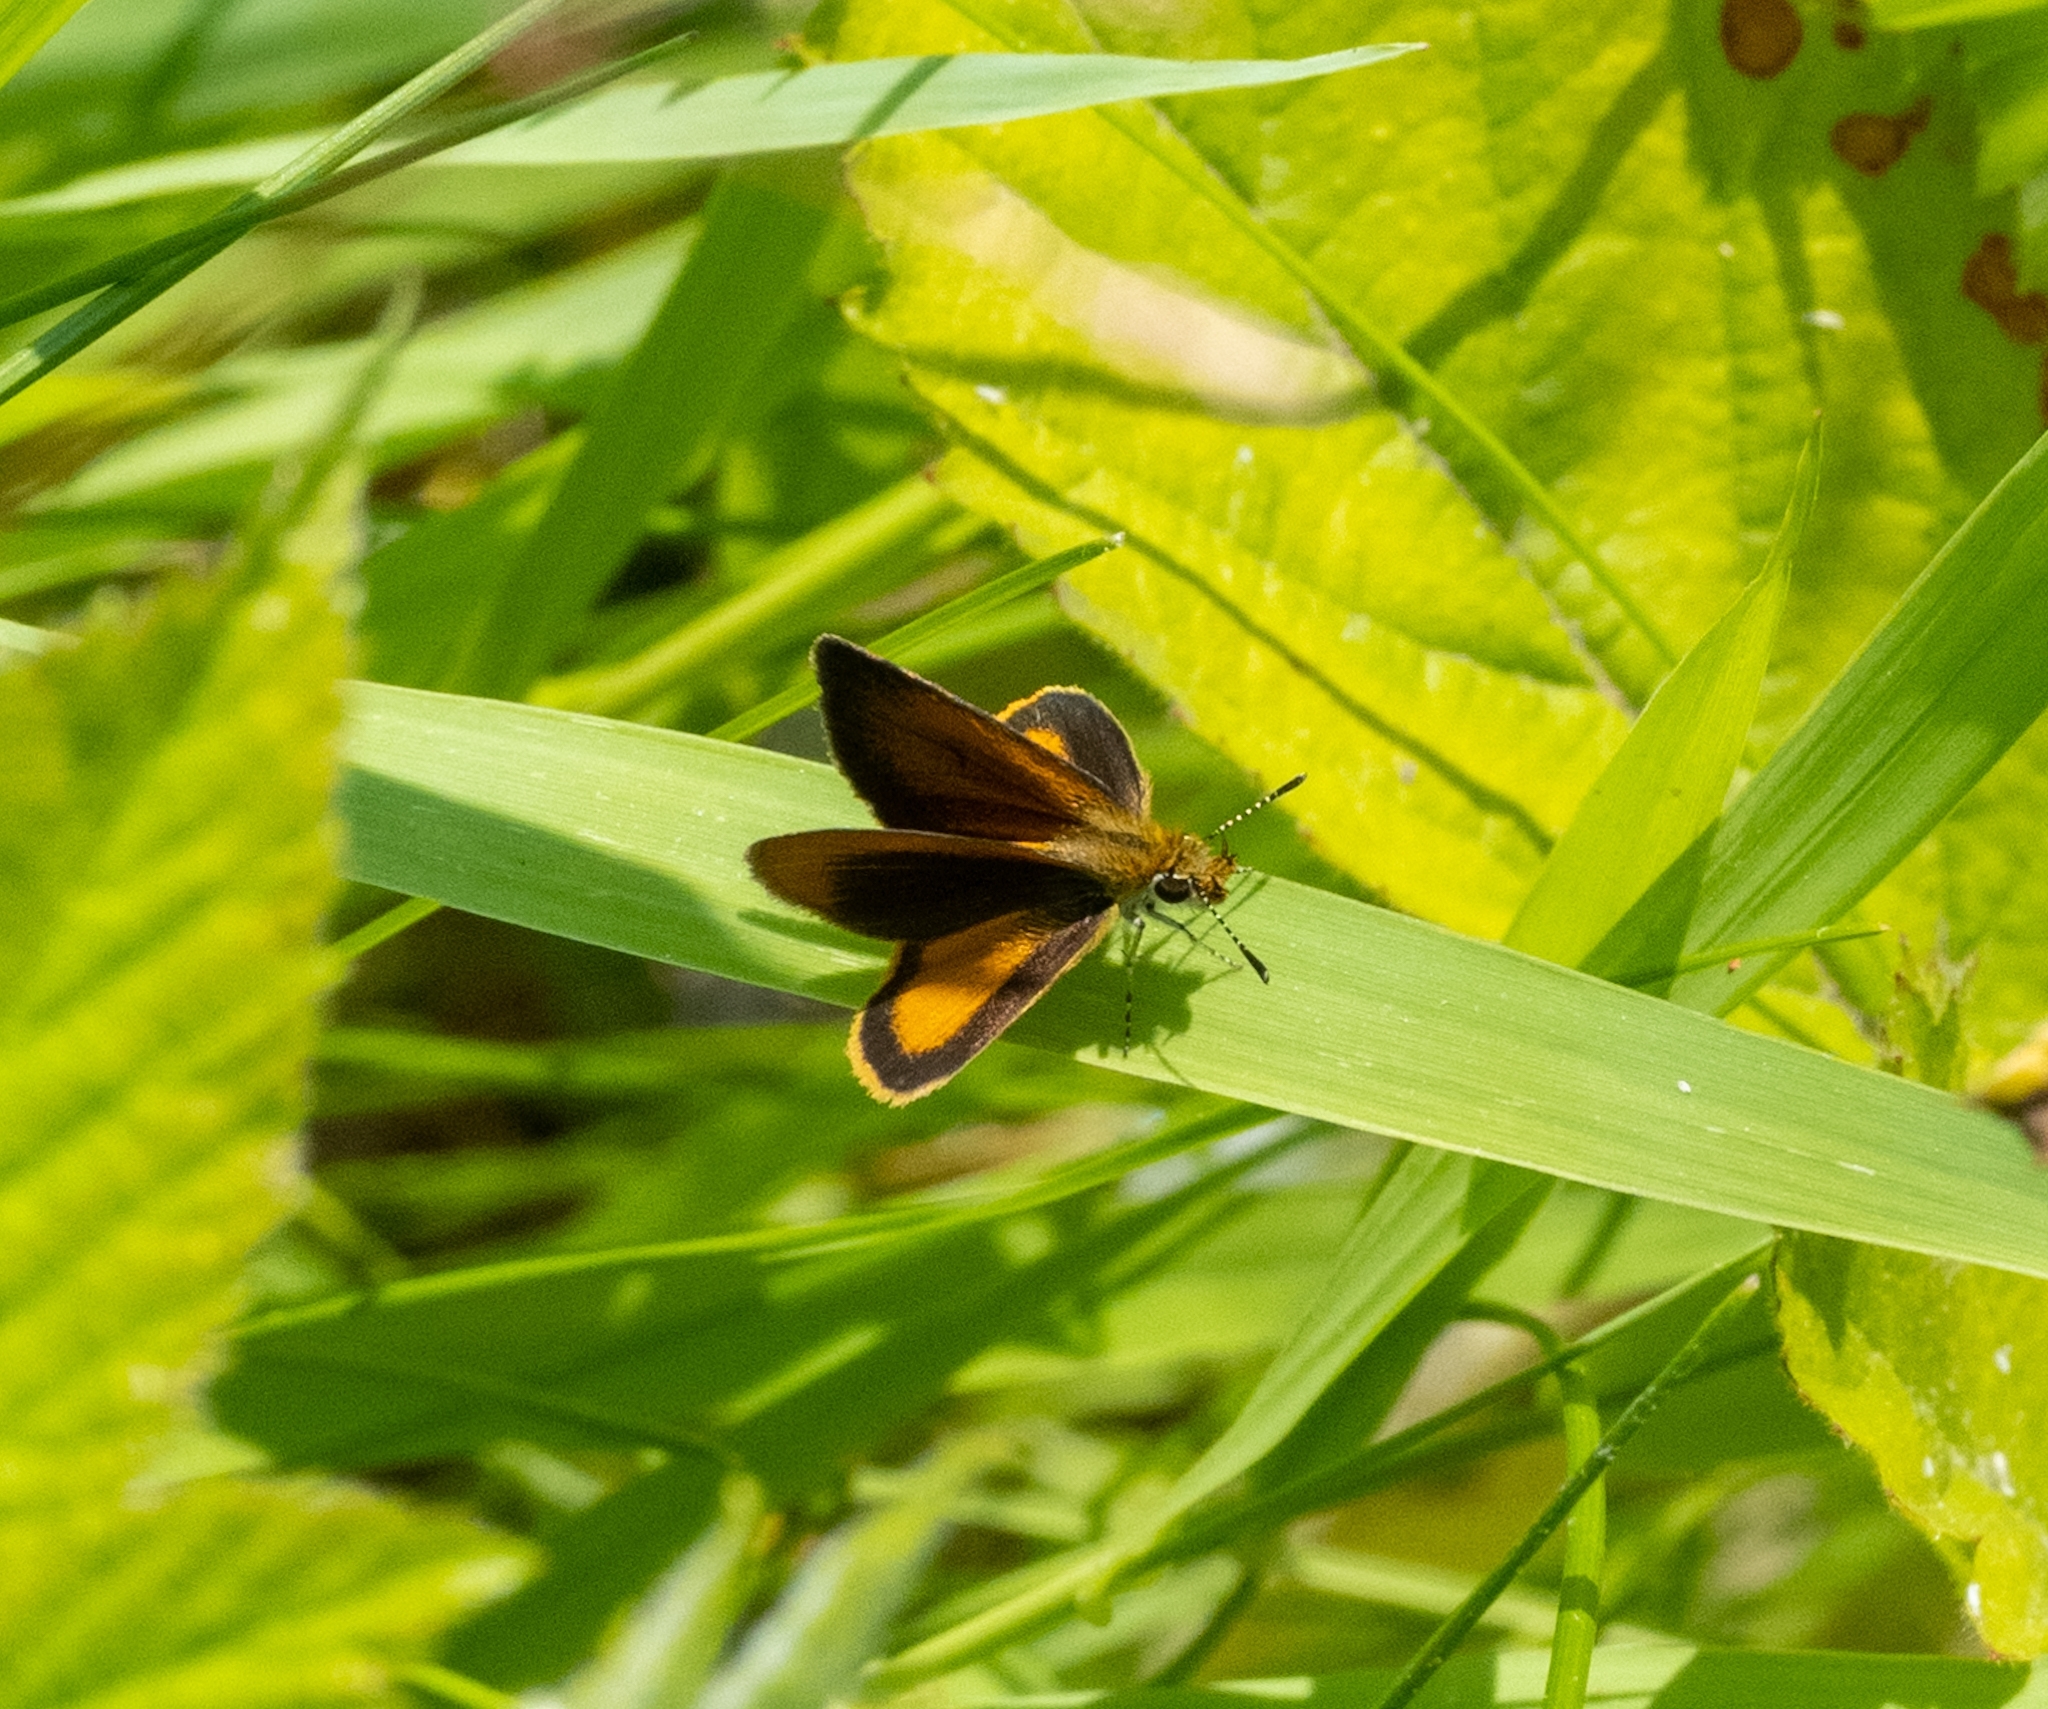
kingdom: Animalia
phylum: Arthropoda
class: Insecta
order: Lepidoptera
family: Hesperiidae
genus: Ancyloxypha
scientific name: Ancyloxypha numitor
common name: Least skipper
